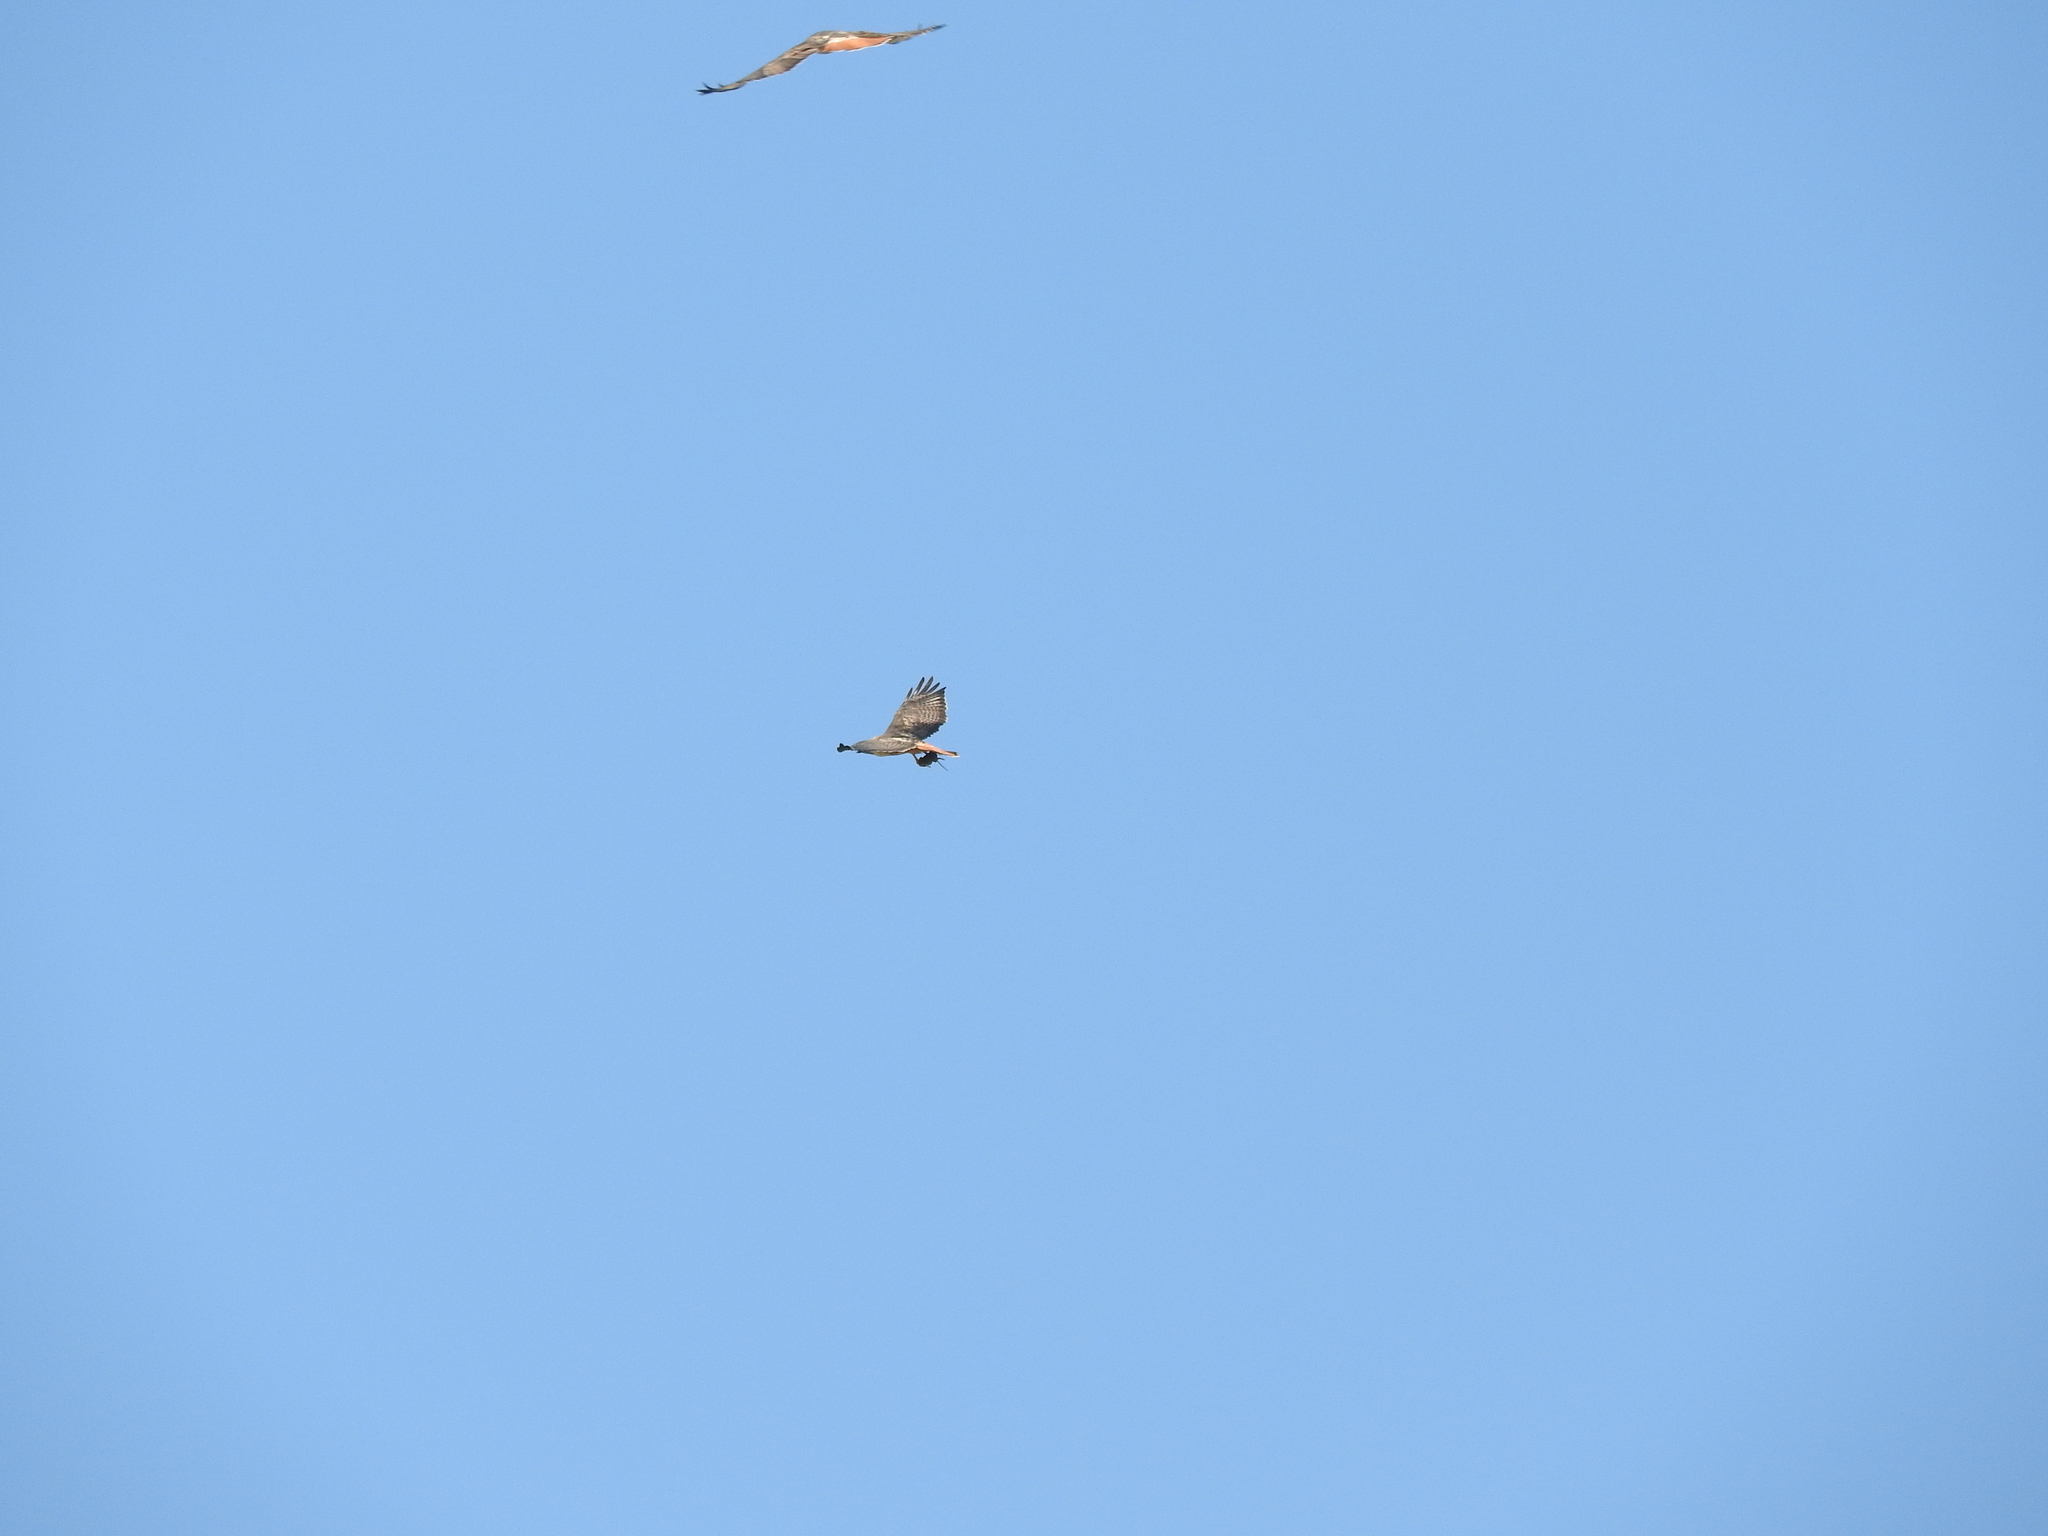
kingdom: Animalia
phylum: Chordata
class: Aves
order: Accipitriformes
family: Accipitridae
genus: Buteo
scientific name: Buteo jamaicensis
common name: Red-tailed hawk
